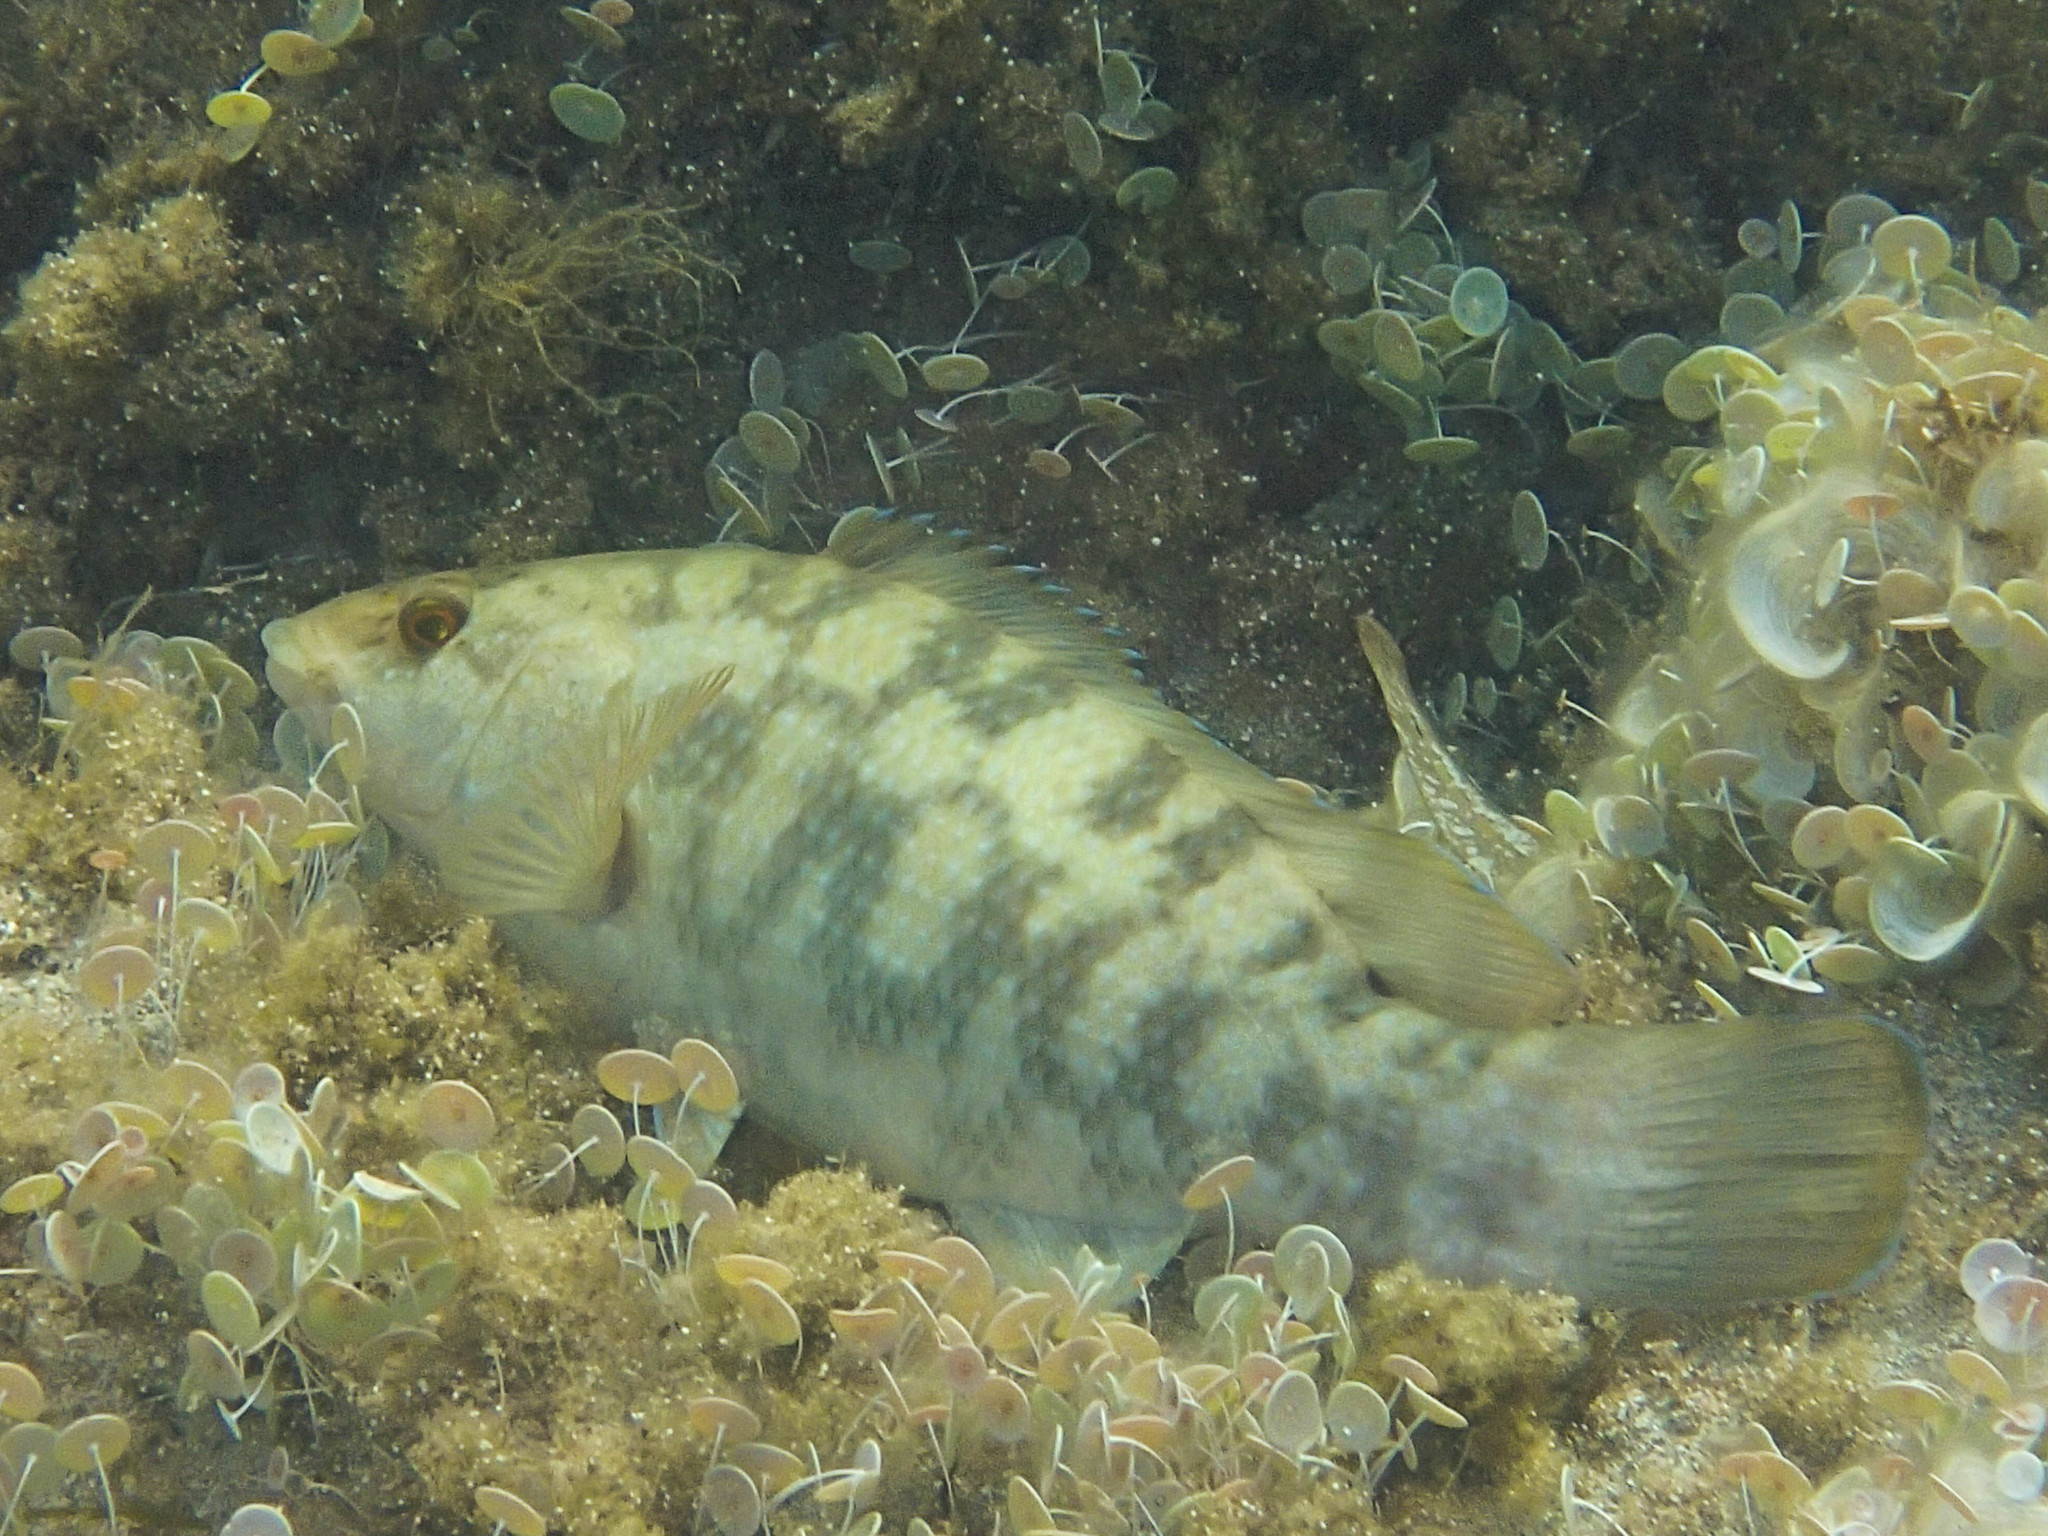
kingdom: Animalia
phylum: Chordata
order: Perciformes
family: Labridae
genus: Labrus
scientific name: Labrus merula
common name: Brown wrasse
